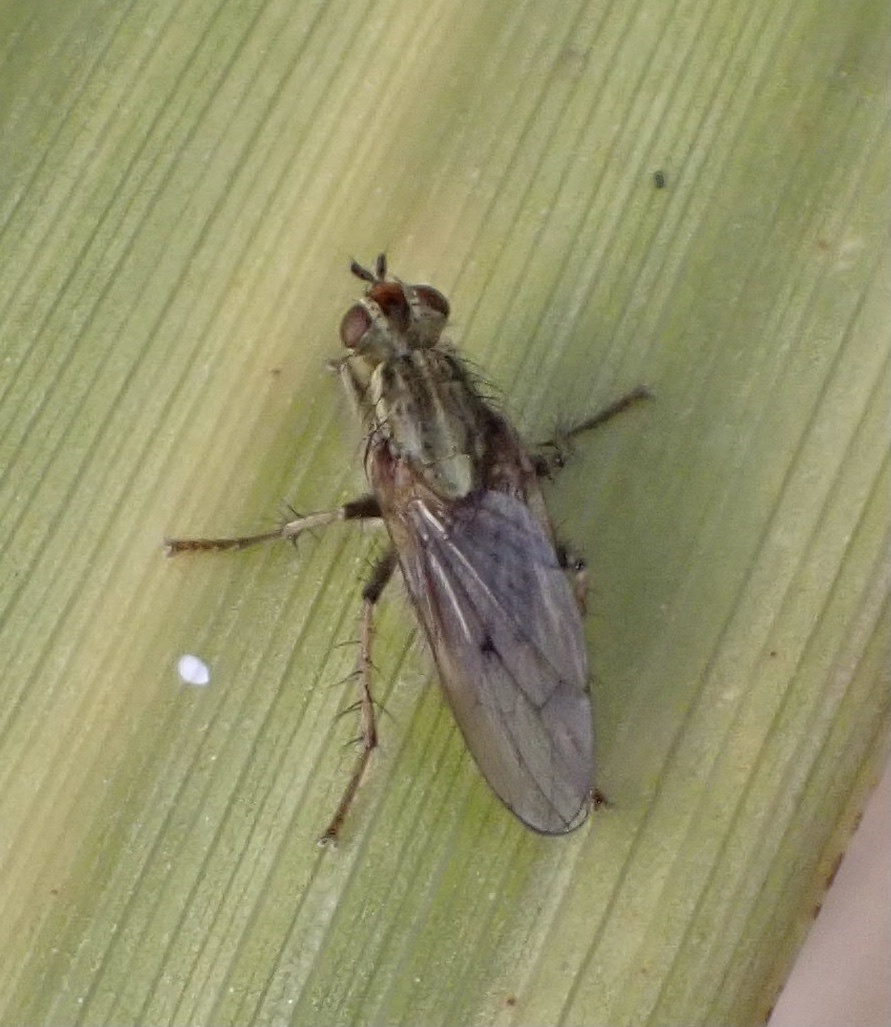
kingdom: Animalia
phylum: Arthropoda
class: Insecta
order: Diptera
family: Scathophagidae
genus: Scathophaga
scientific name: Scathophaga stercoraria
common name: Yellow dung fly
